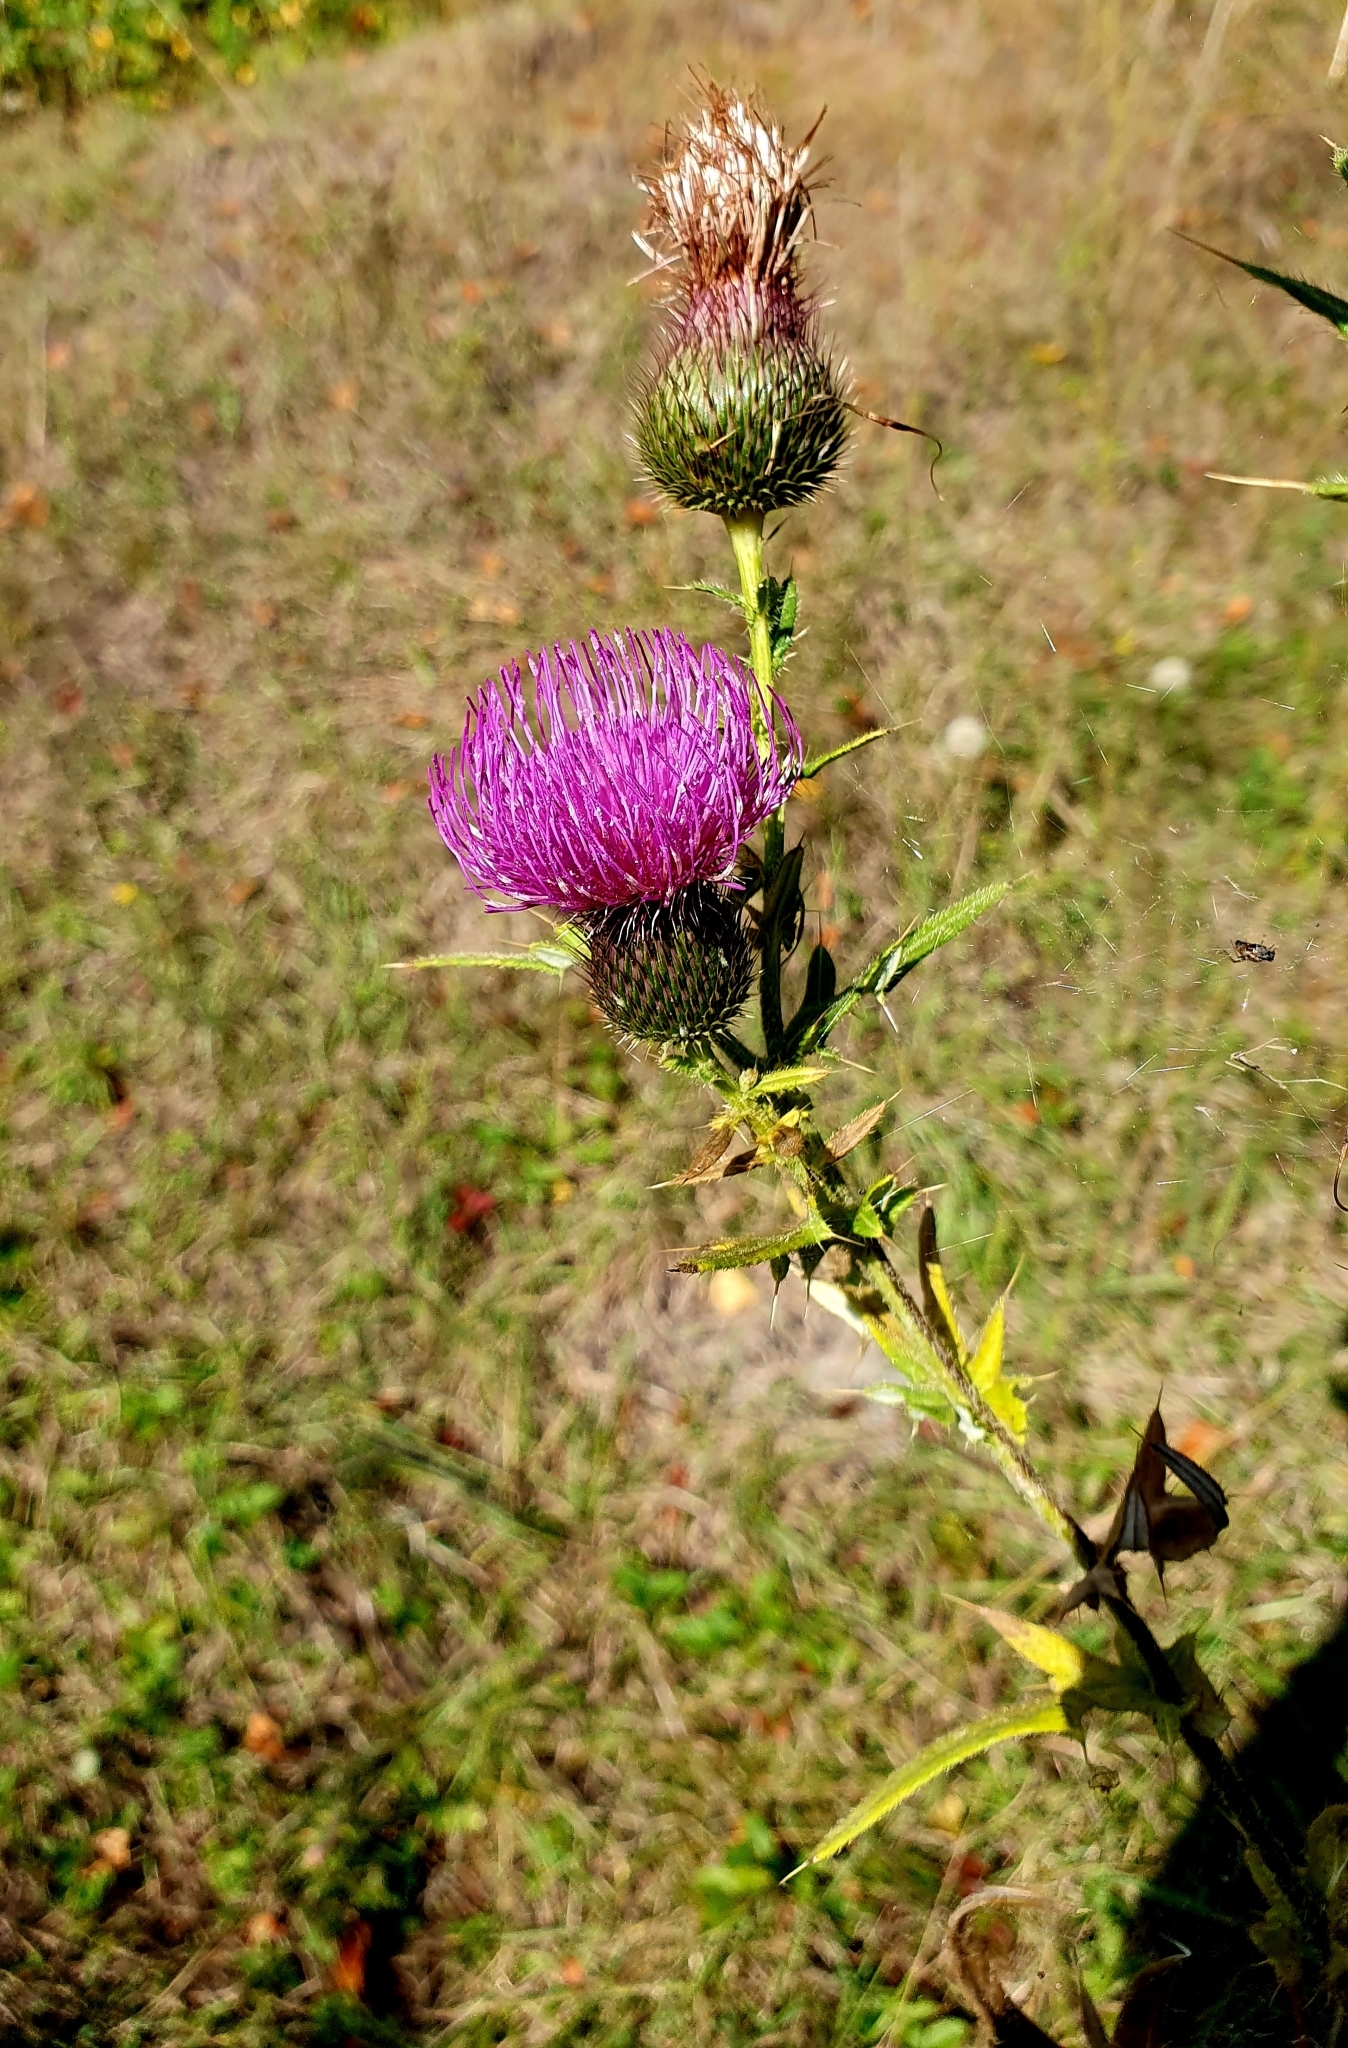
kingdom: Plantae
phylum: Tracheophyta
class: Magnoliopsida
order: Asterales
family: Asteraceae
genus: Cirsium
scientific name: Cirsium serrulatum
